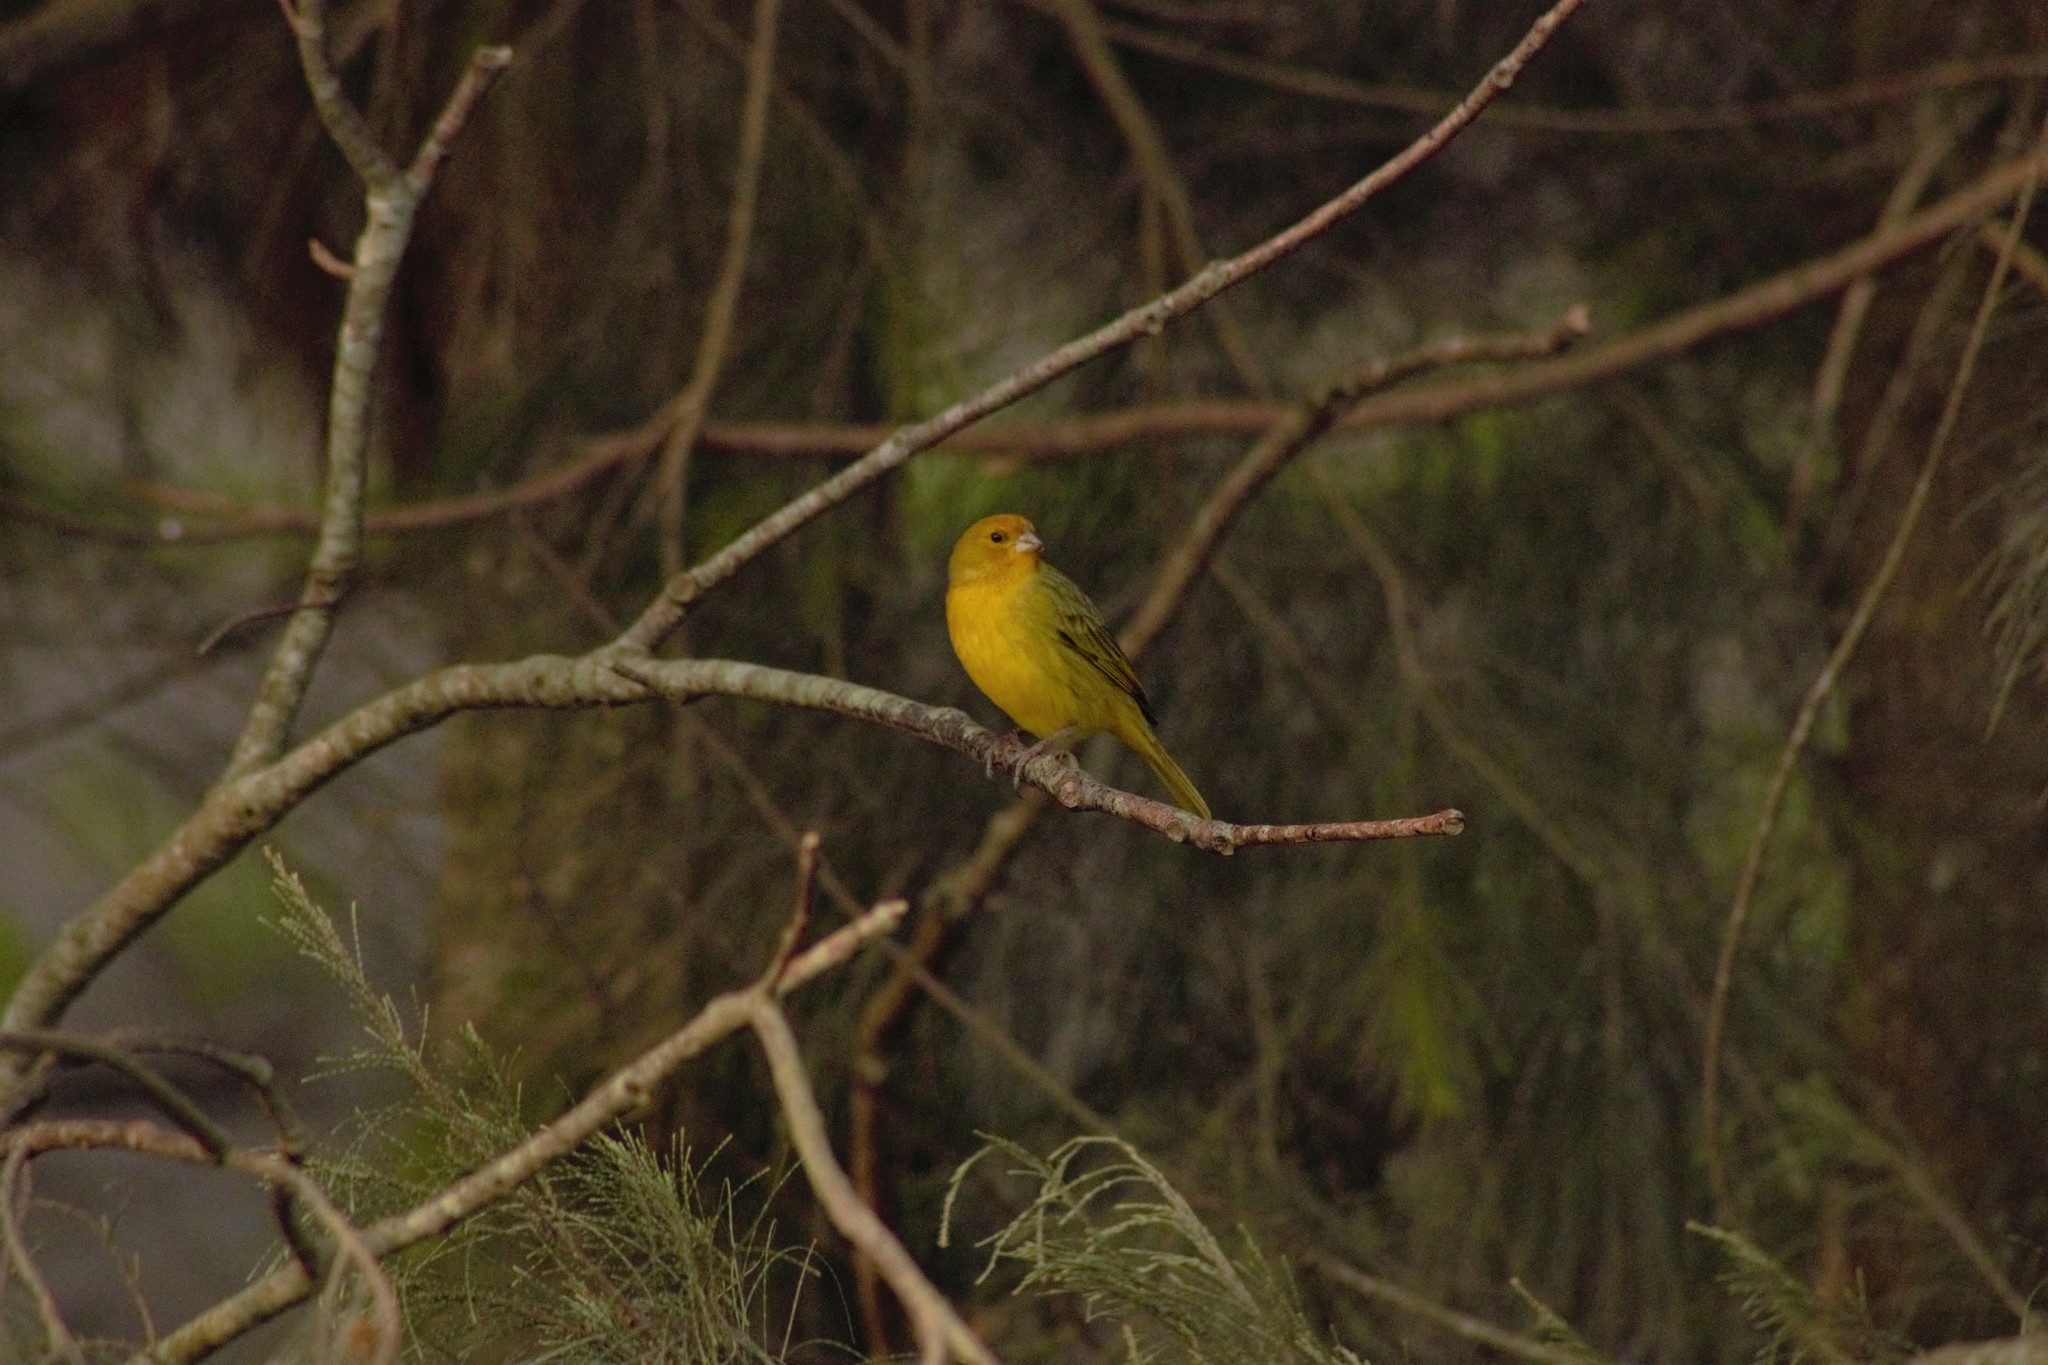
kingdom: Animalia
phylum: Chordata
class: Aves
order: Passeriformes
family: Thraupidae
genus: Sicalis
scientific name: Sicalis flaveola
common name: Saffron finch
